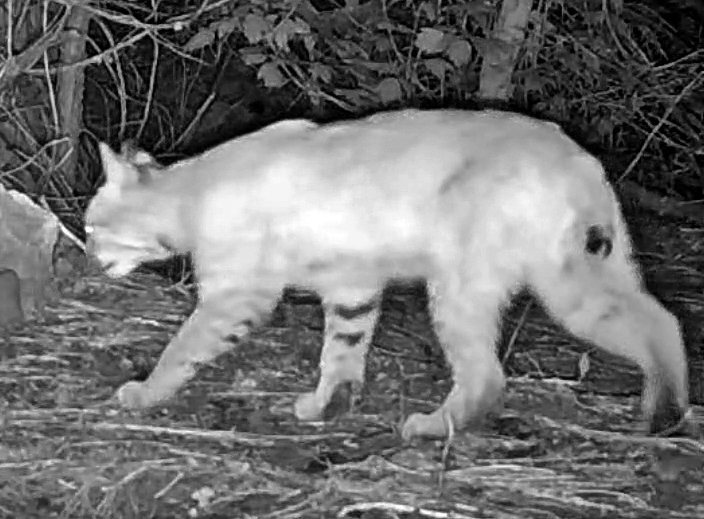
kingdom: Animalia
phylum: Chordata
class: Mammalia
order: Carnivora
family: Felidae
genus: Lynx
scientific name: Lynx rufus
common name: Bobcat
